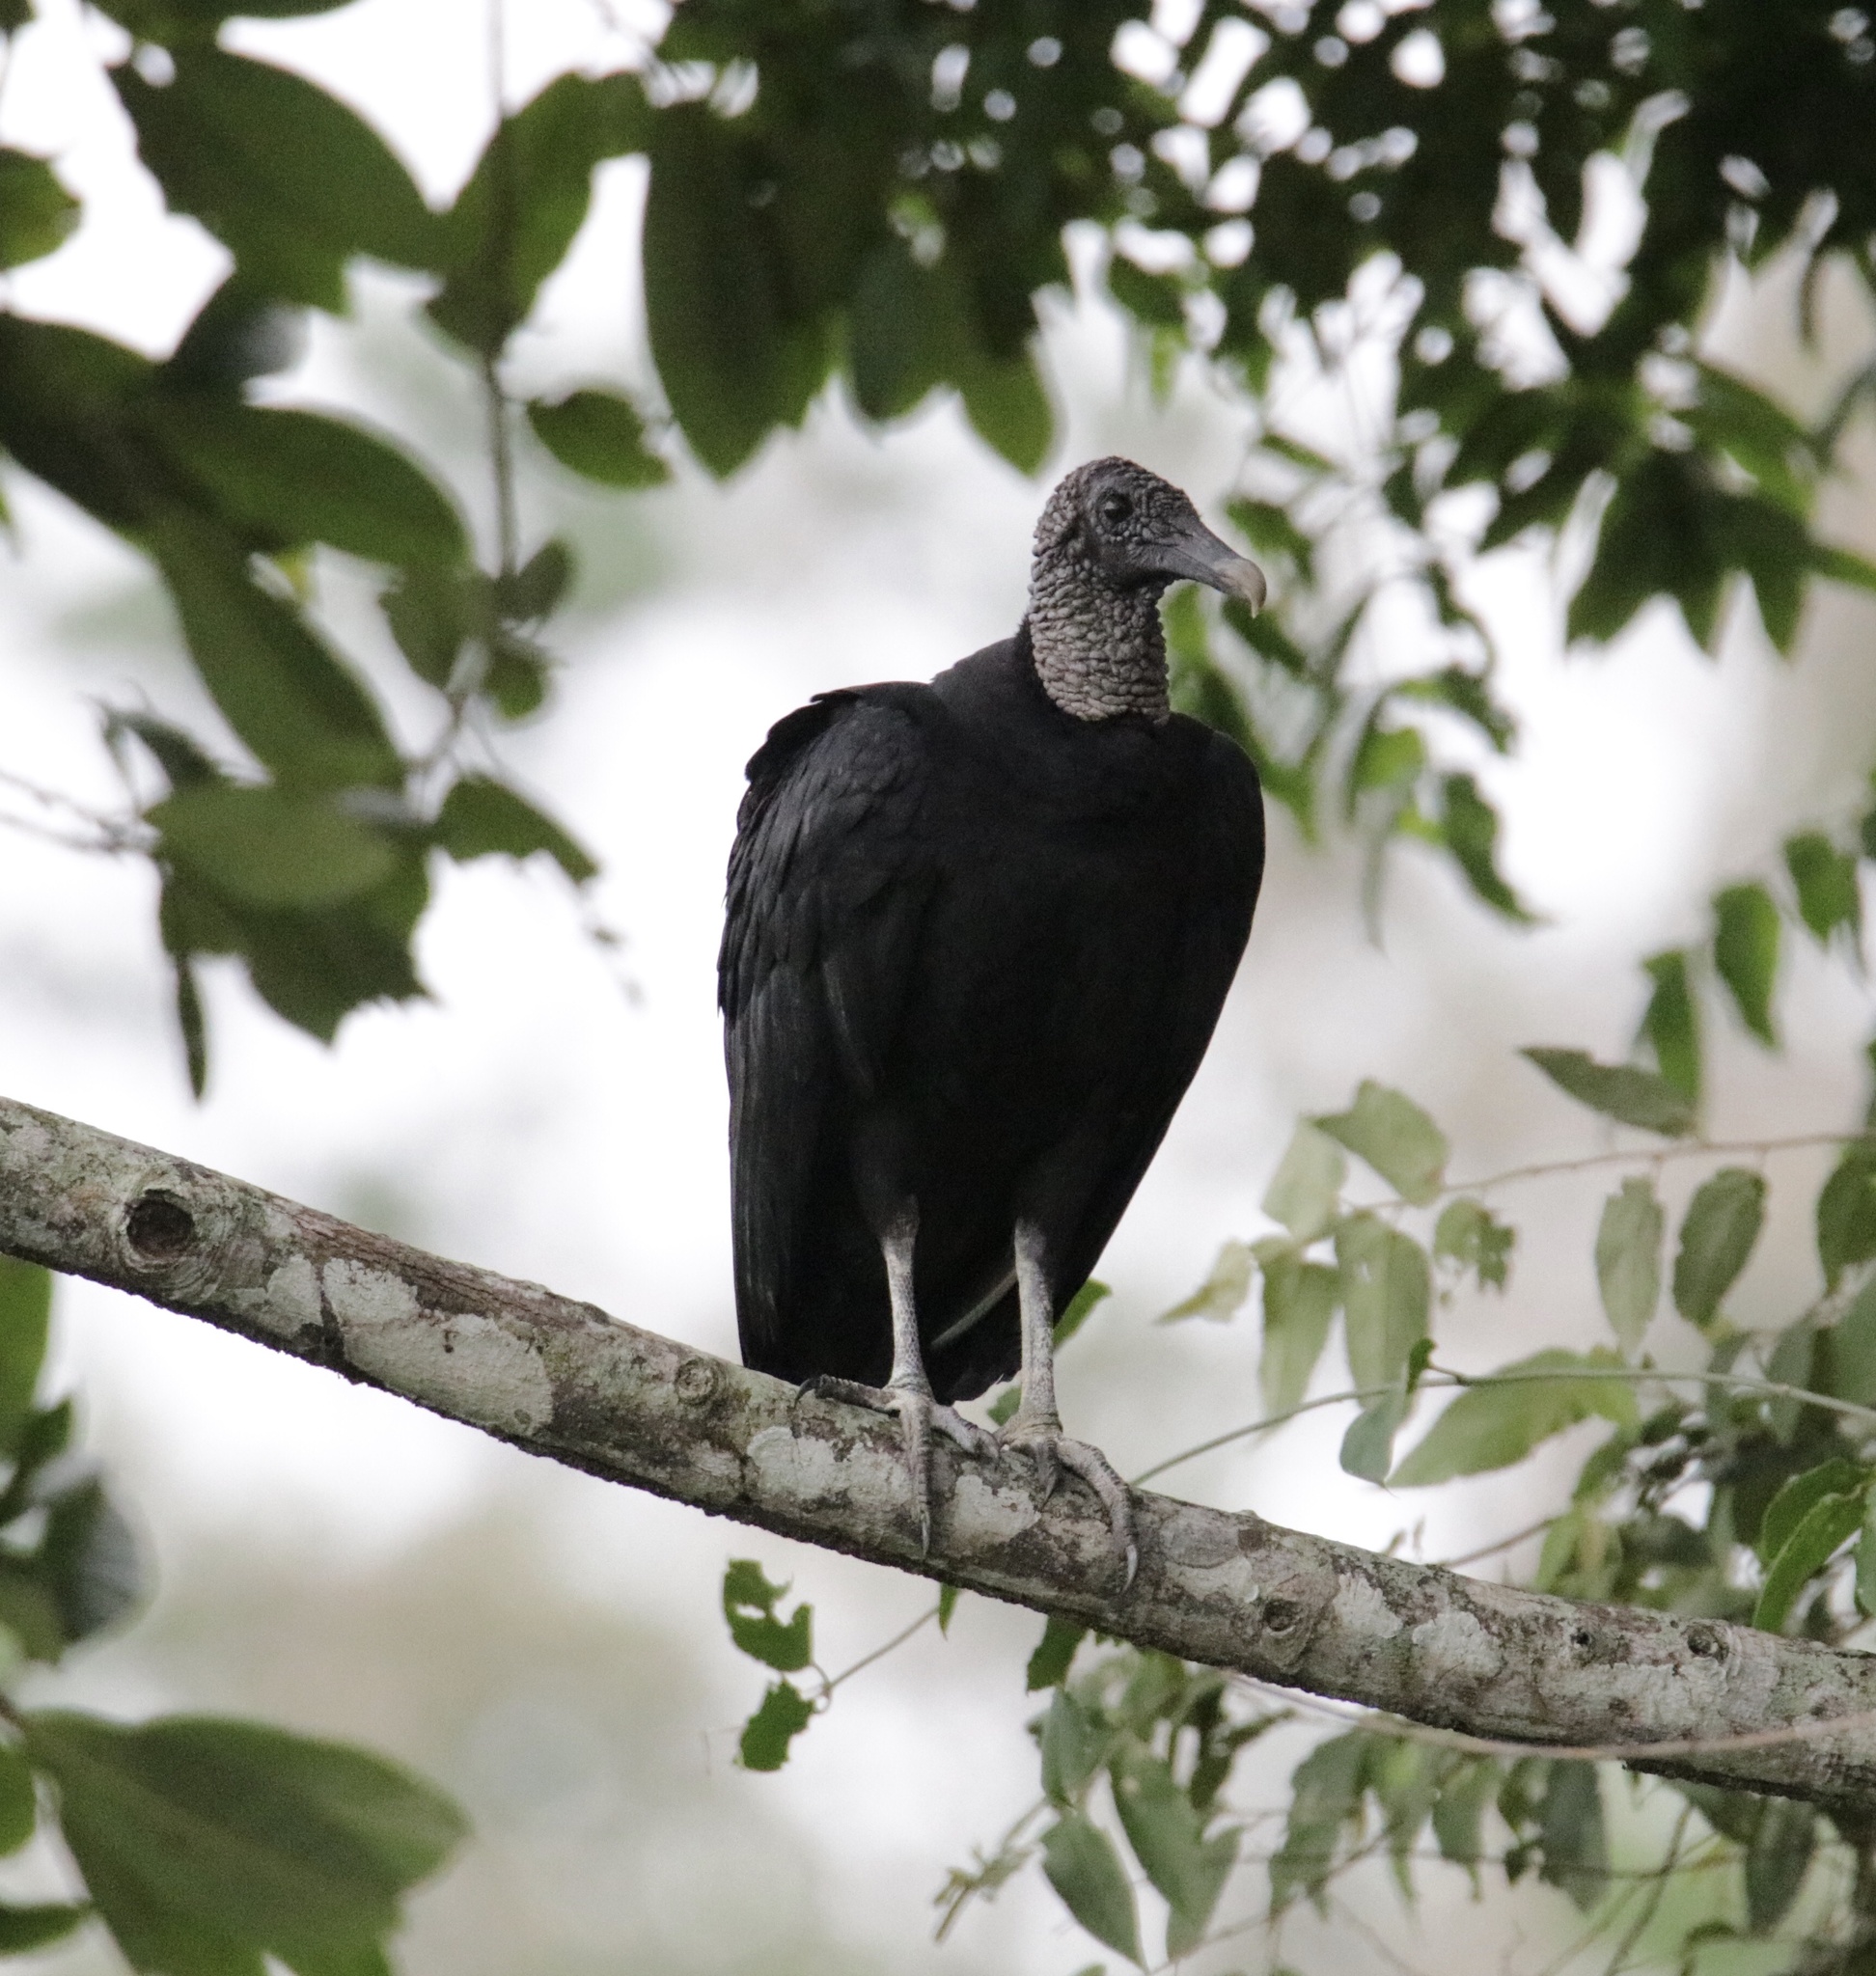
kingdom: Animalia
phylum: Chordata
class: Aves
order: Accipitriformes
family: Cathartidae
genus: Coragyps
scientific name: Coragyps atratus
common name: Black vulture
